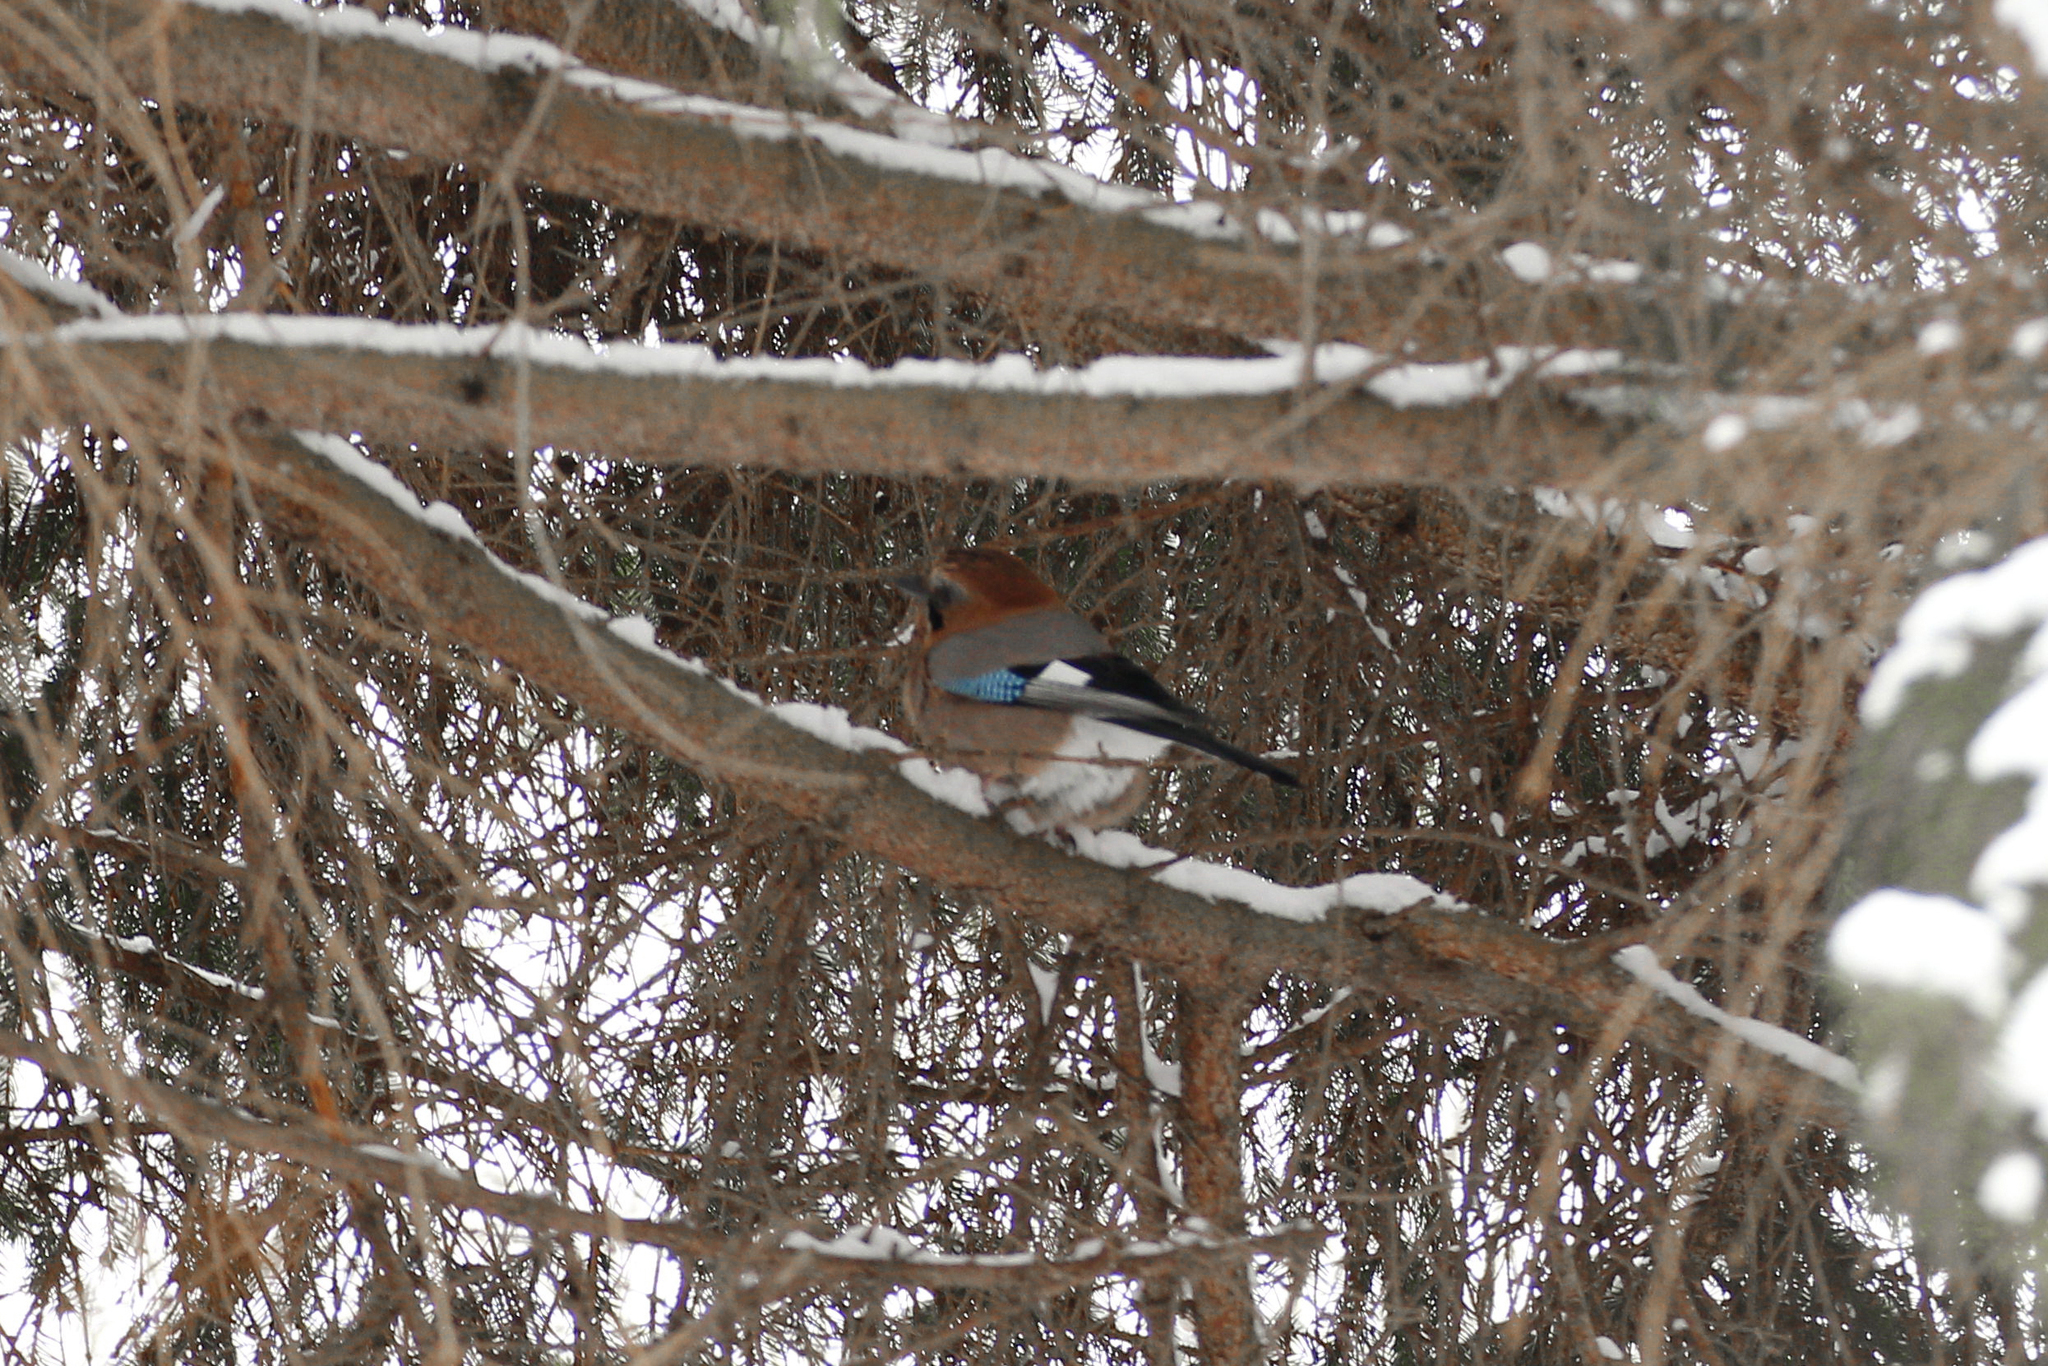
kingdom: Animalia
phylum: Chordata
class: Aves
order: Passeriformes
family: Corvidae
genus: Garrulus
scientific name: Garrulus glandarius
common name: Eurasian jay
